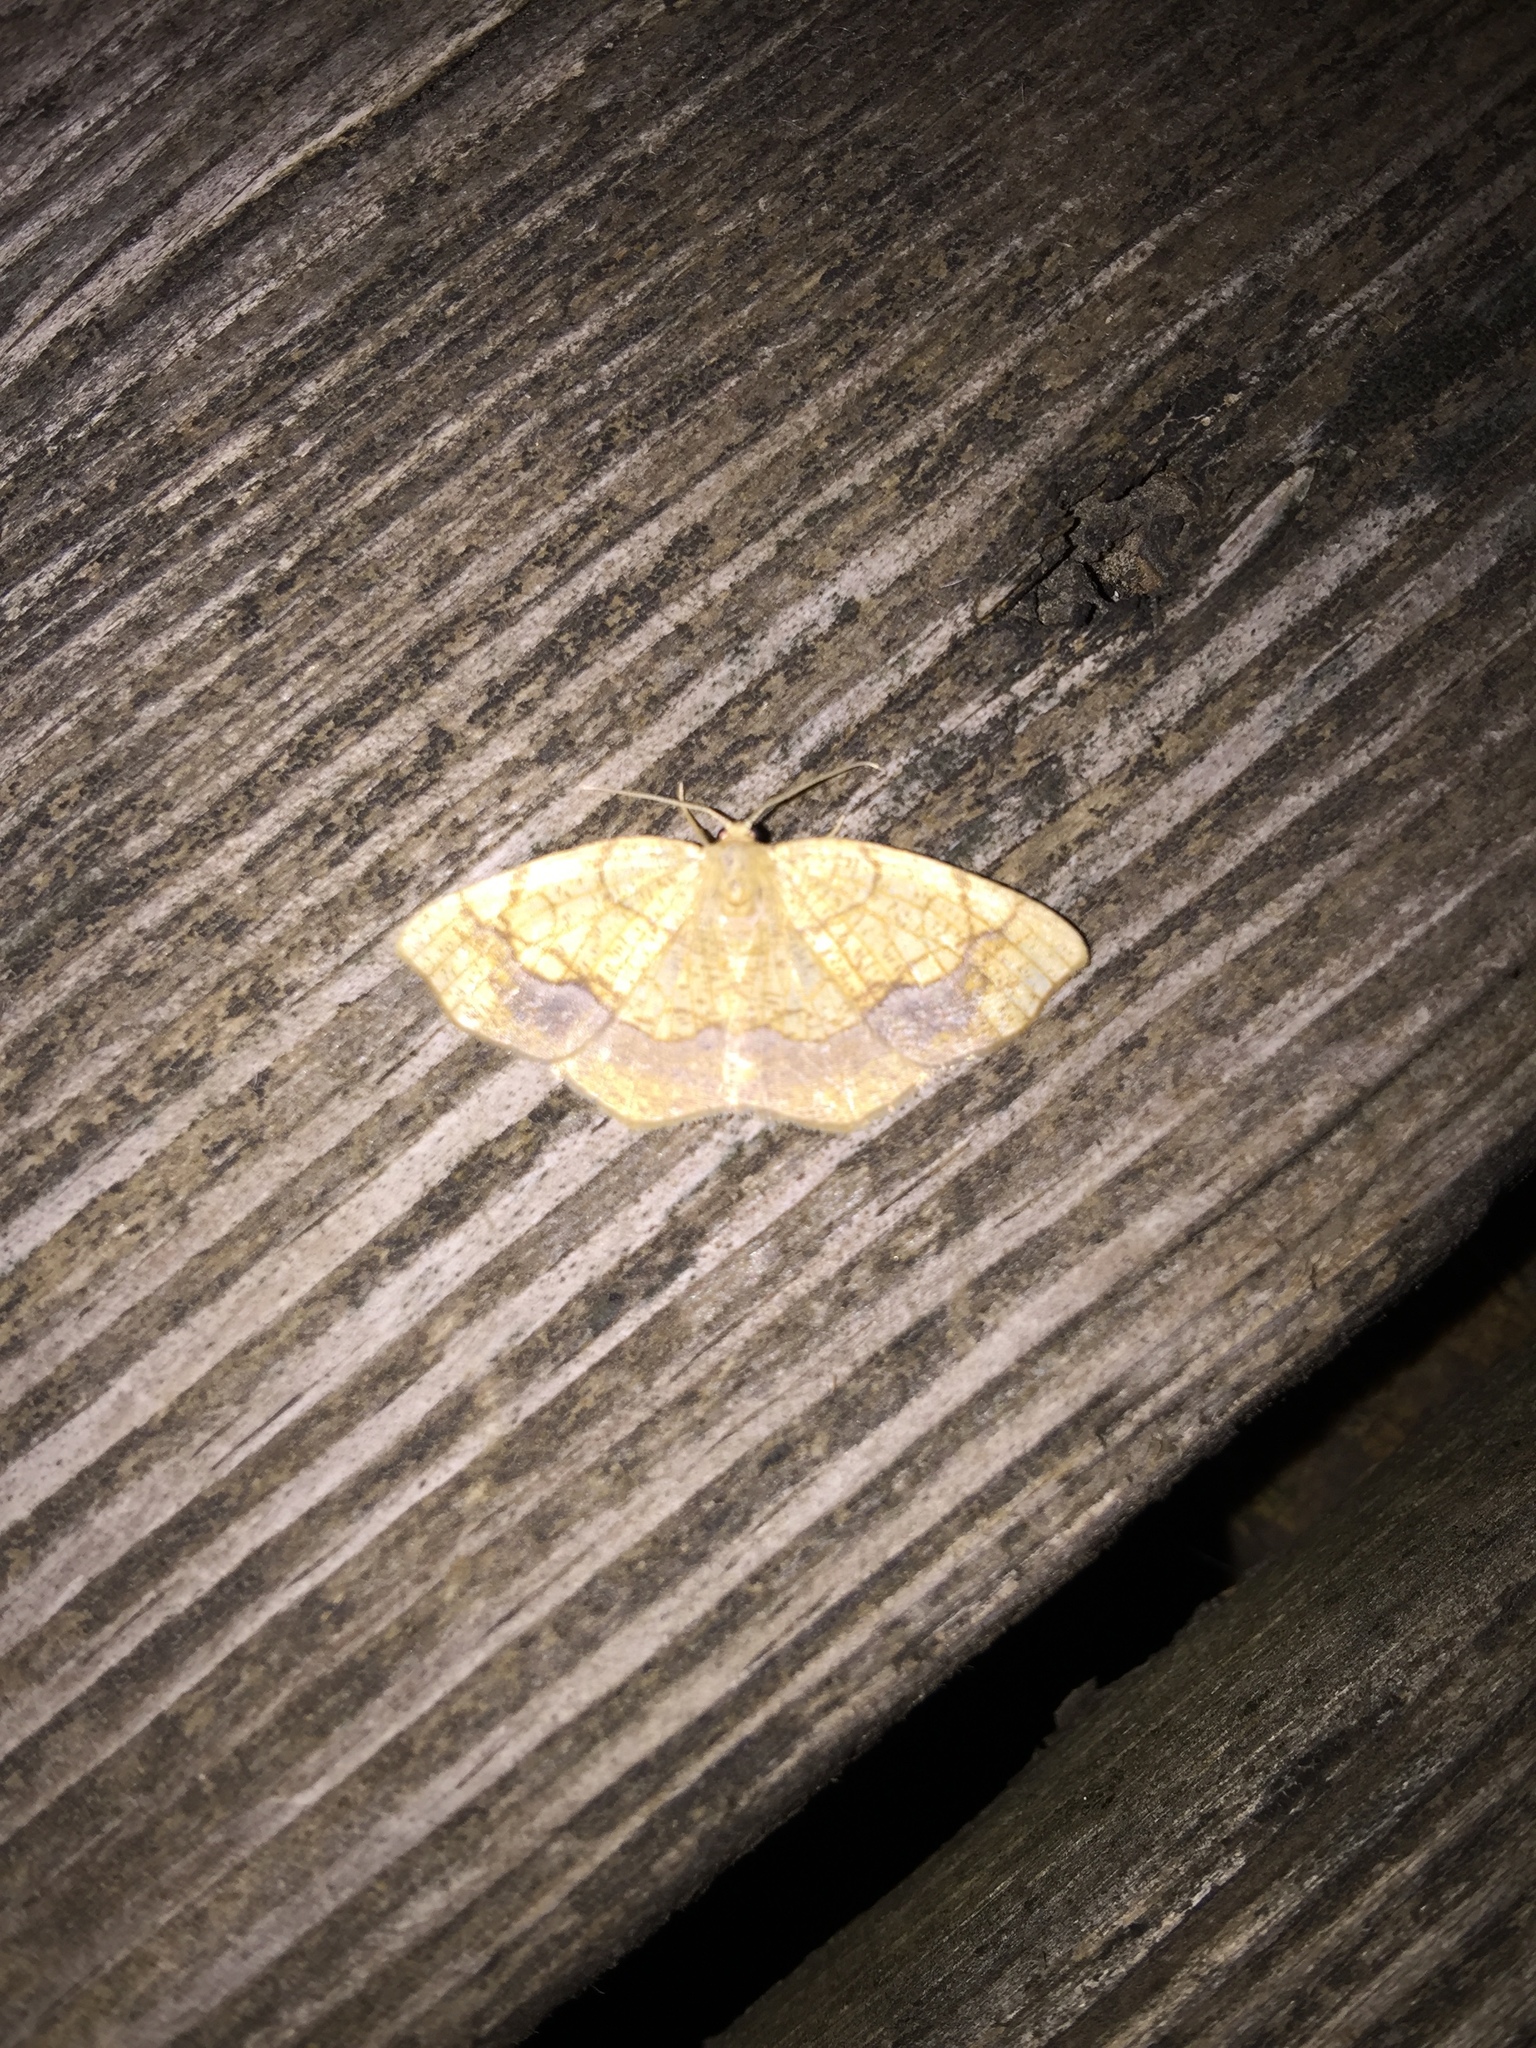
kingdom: Animalia
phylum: Arthropoda
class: Insecta
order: Lepidoptera
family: Geometridae
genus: Nematocampa
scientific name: Nematocampa resistaria
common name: Horned spanworm moth
